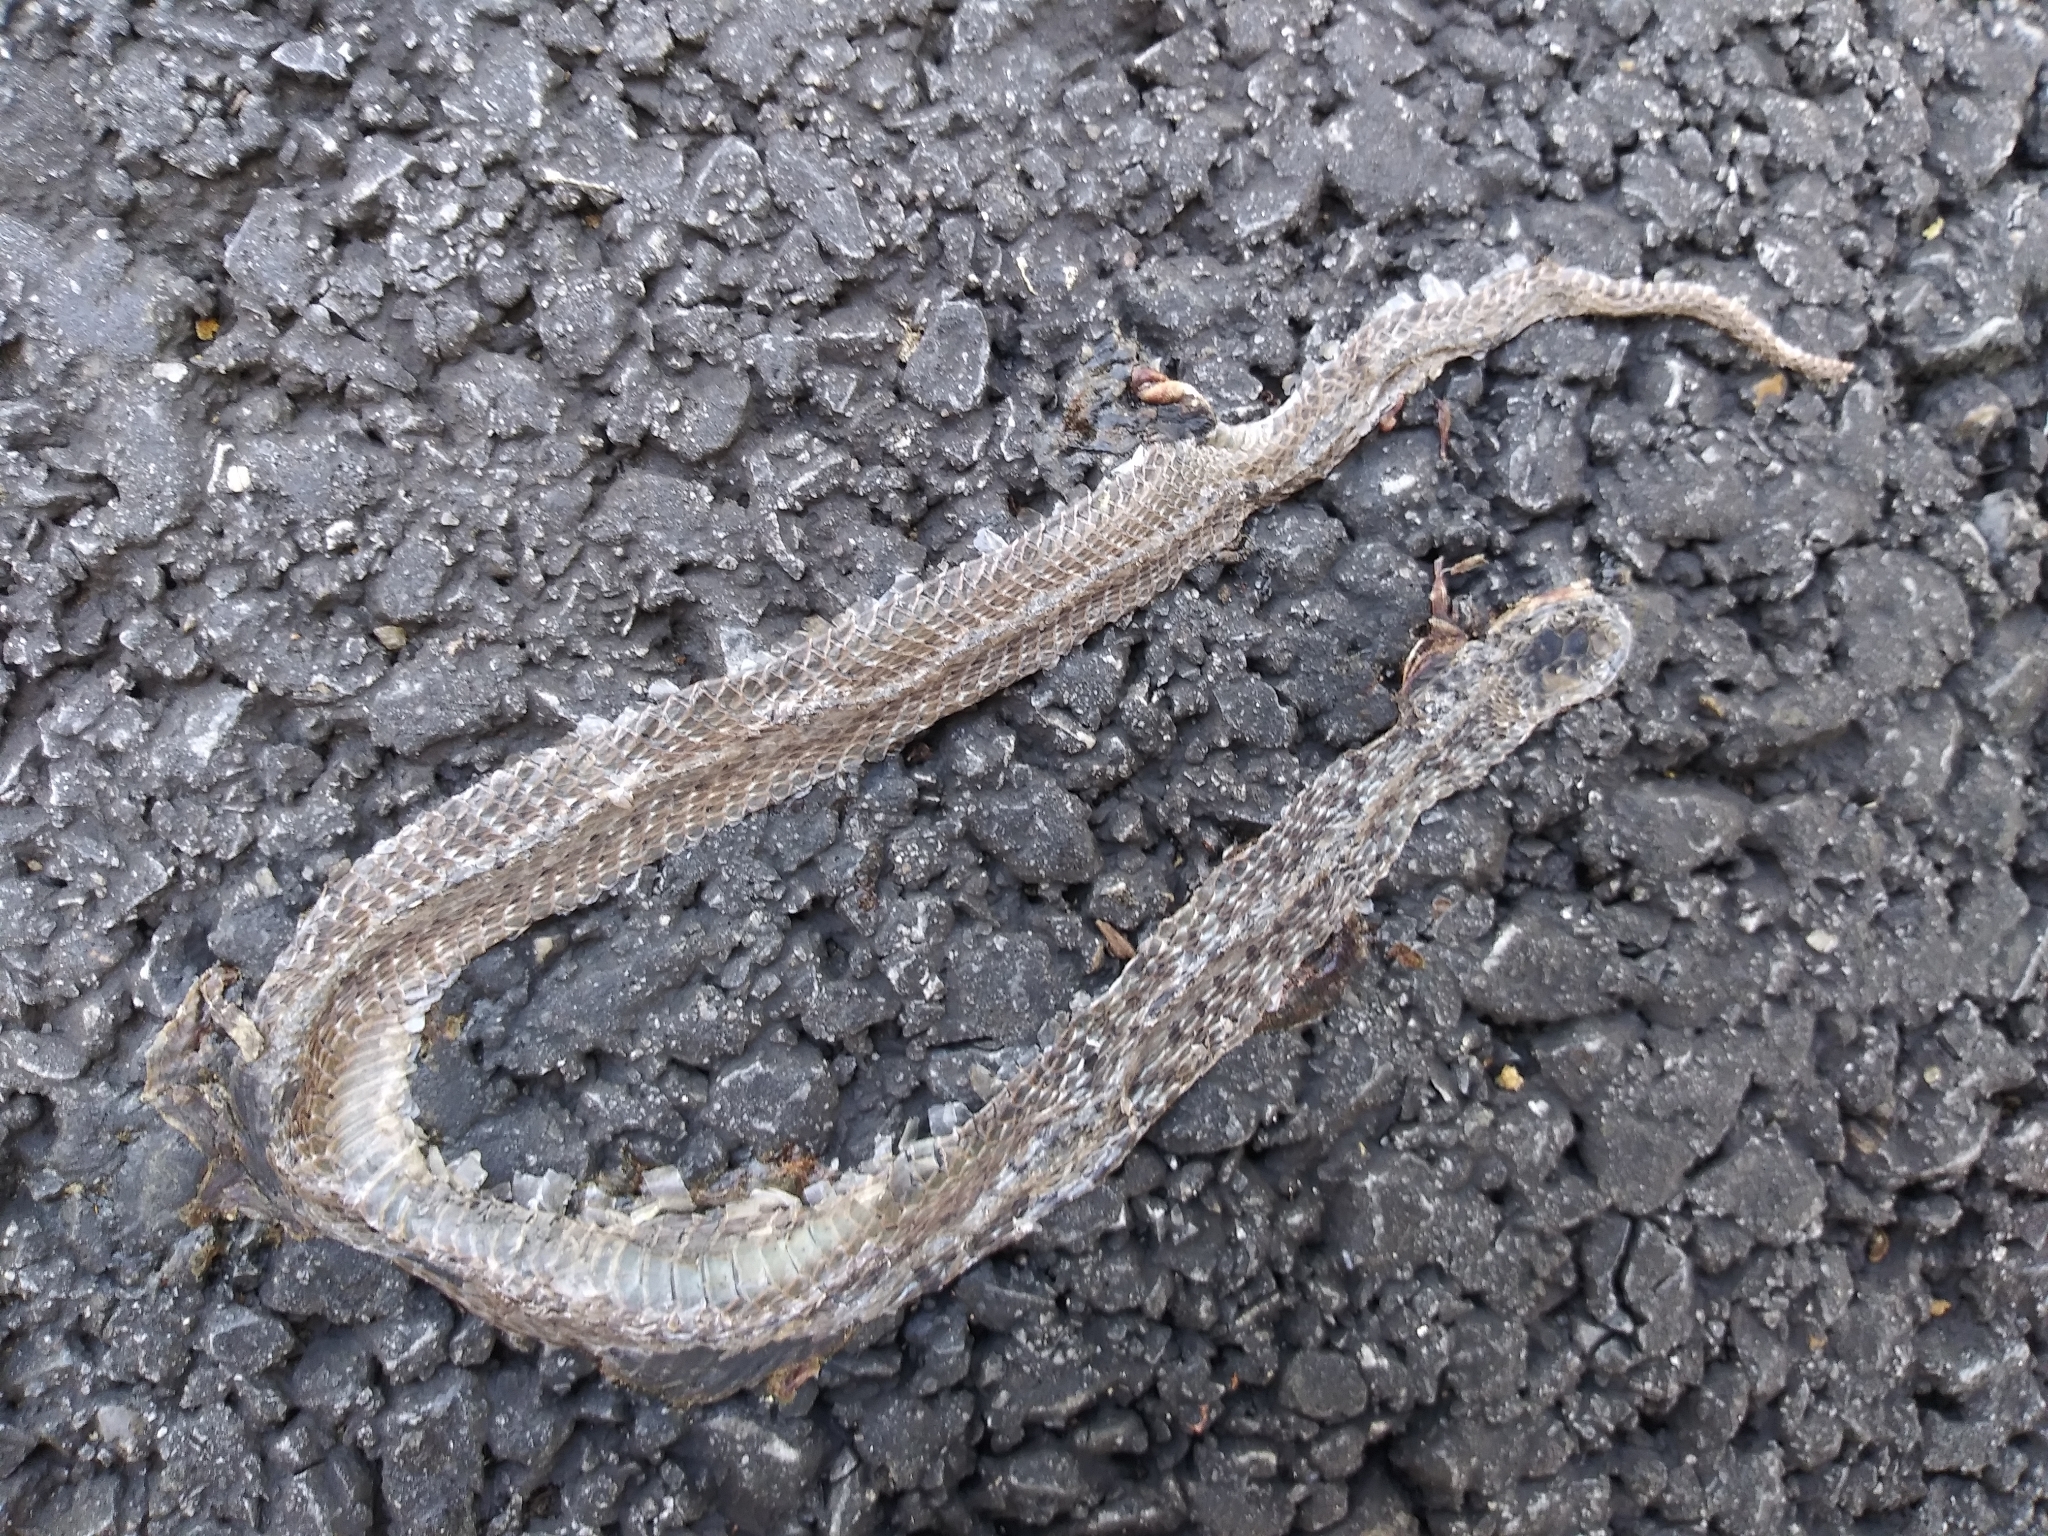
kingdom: Animalia
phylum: Chordata
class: Squamata
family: Colubridae
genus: Storeria
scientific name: Storeria dekayi
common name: (dekay’s) brown snake
